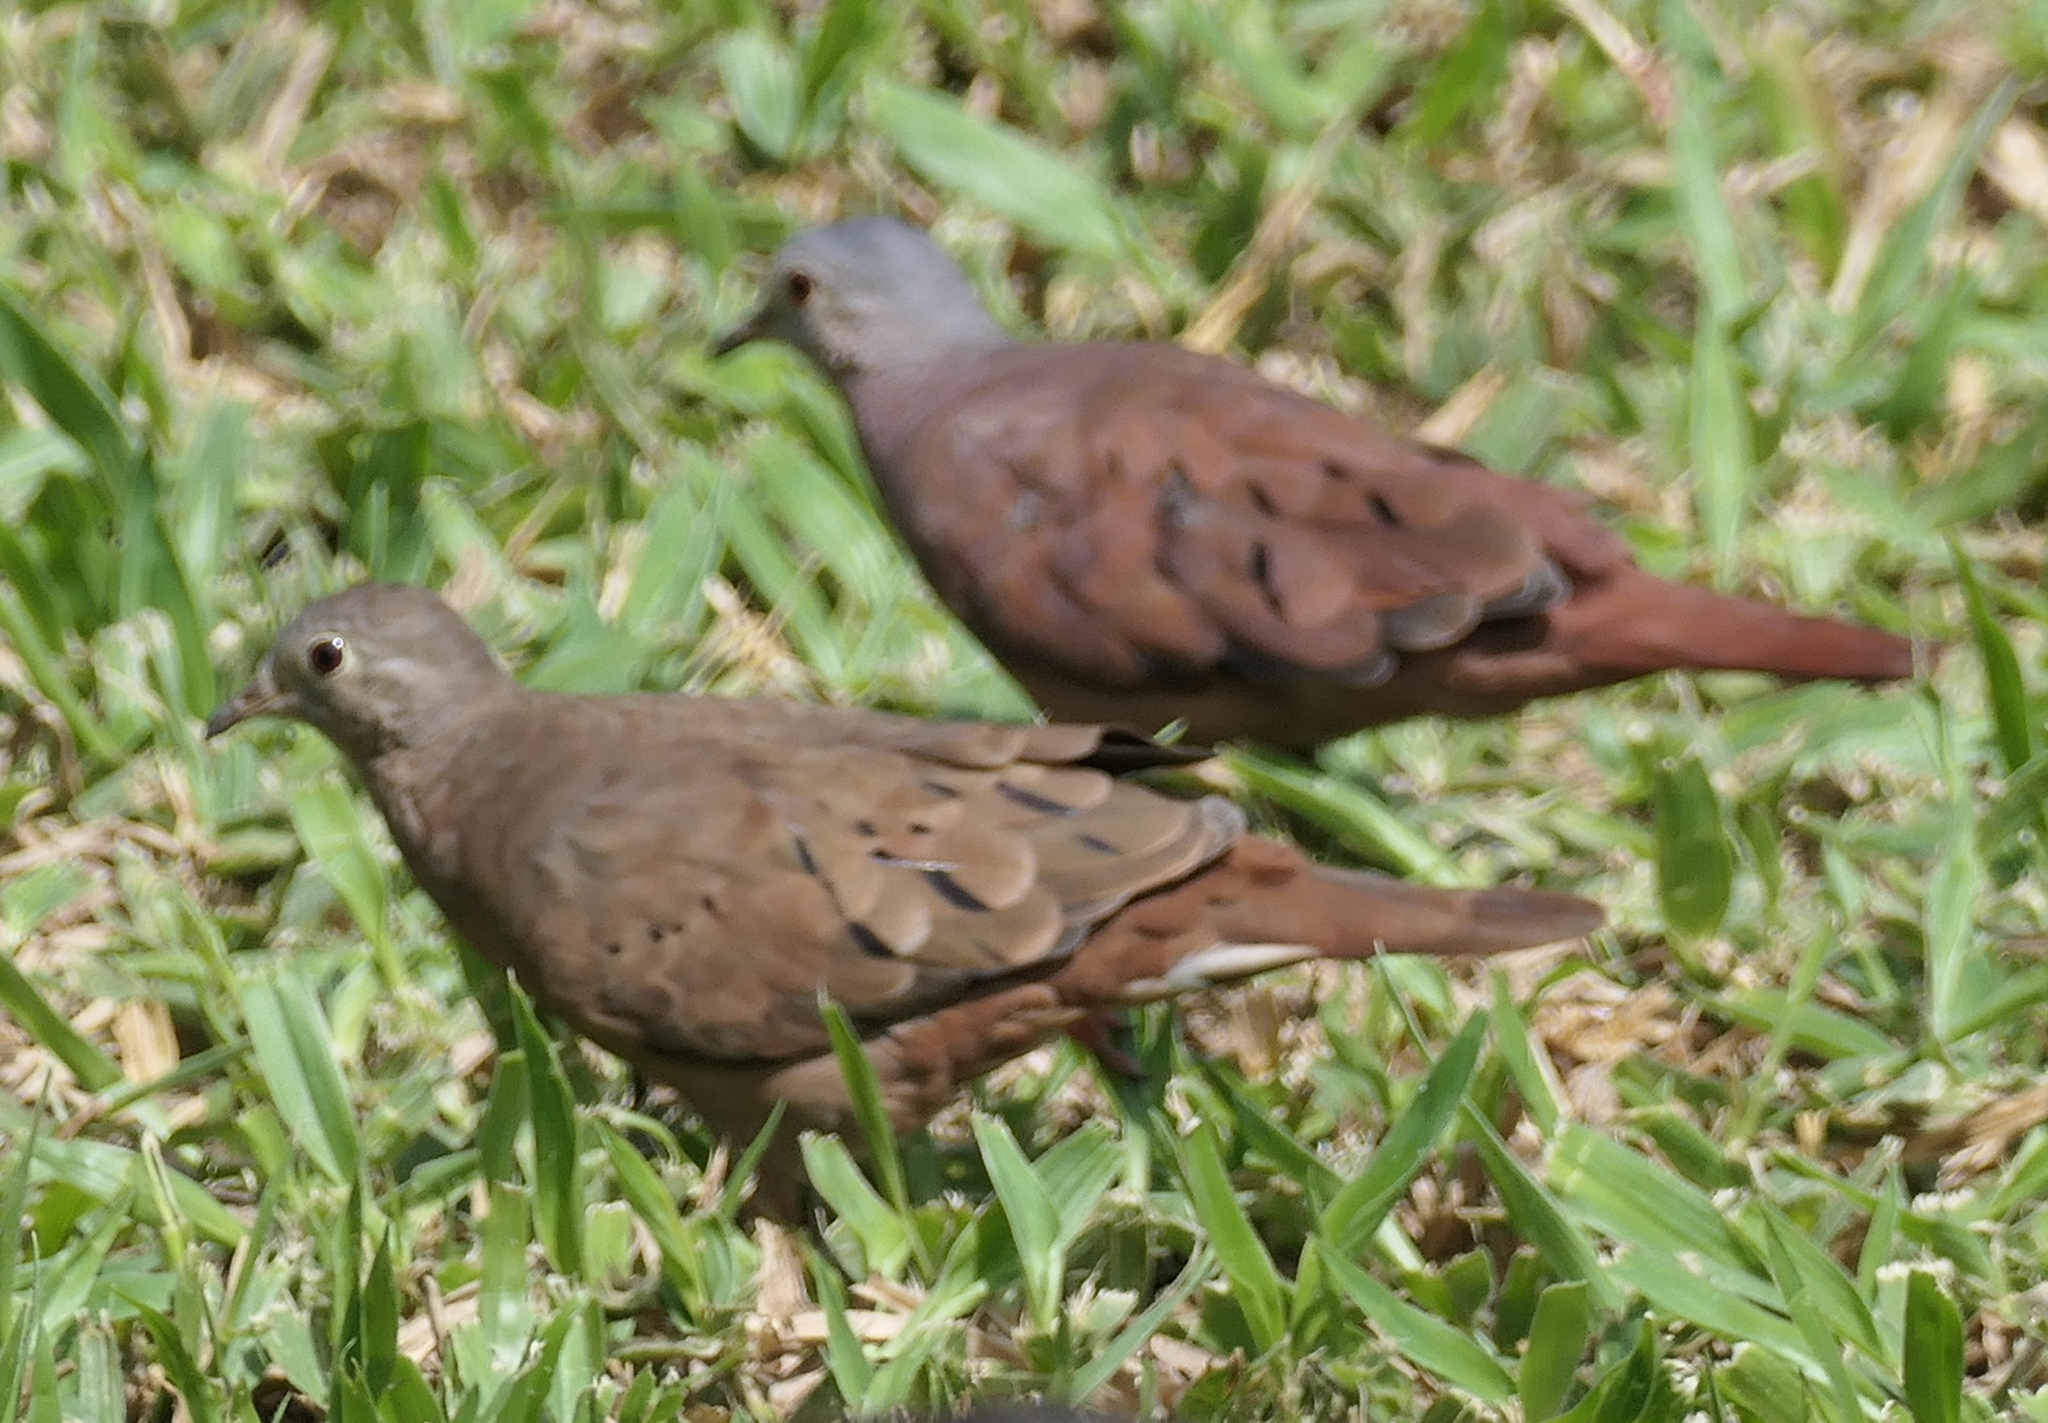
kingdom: Animalia
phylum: Chordata
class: Aves
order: Columbiformes
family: Columbidae
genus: Columbina
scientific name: Columbina talpacoti
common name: Ruddy ground dove
